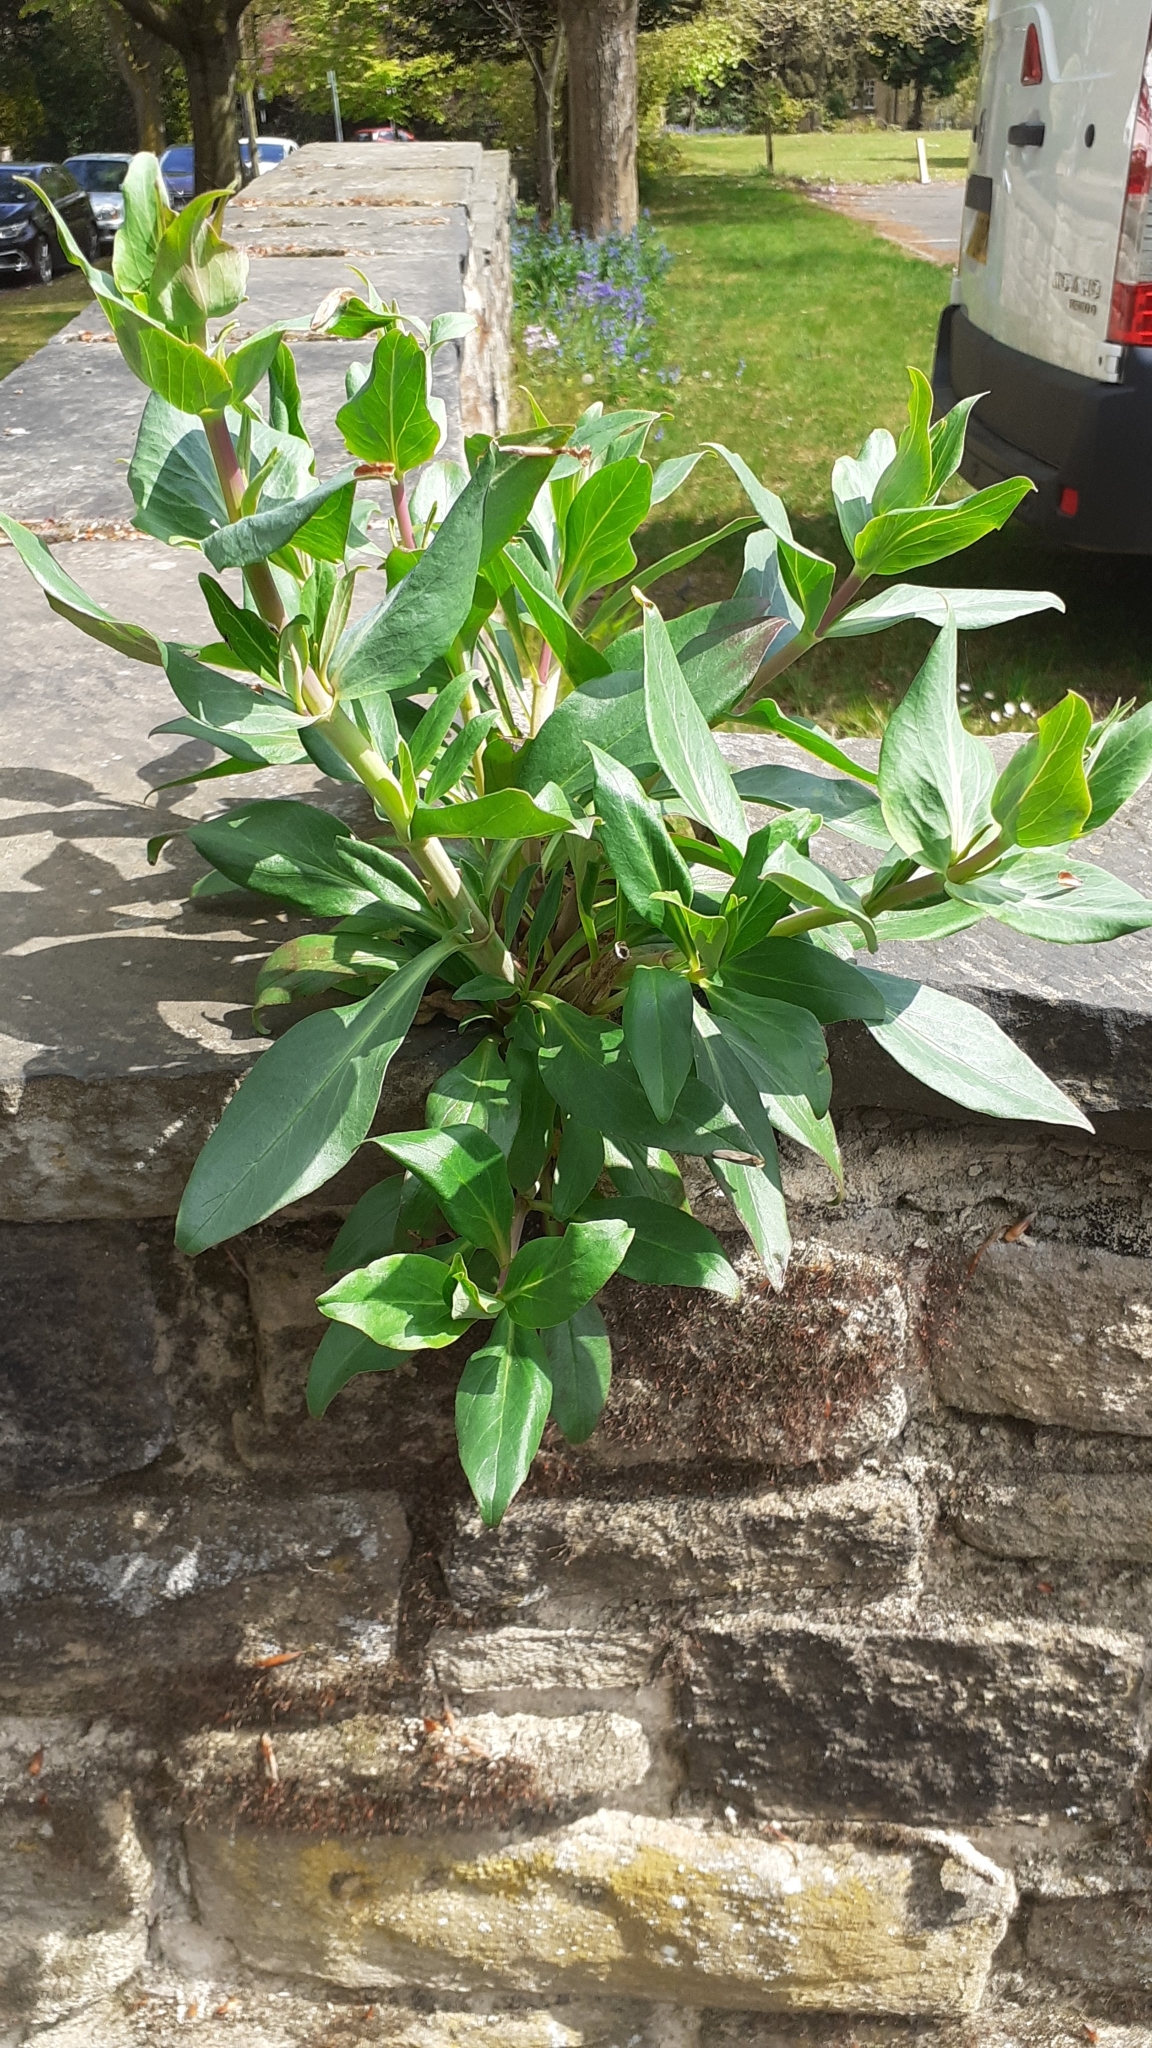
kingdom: Plantae
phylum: Tracheophyta
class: Magnoliopsida
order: Dipsacales
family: Caprifoliaceae
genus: Centranthus
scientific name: Centranthus ruber
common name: Red valerian
